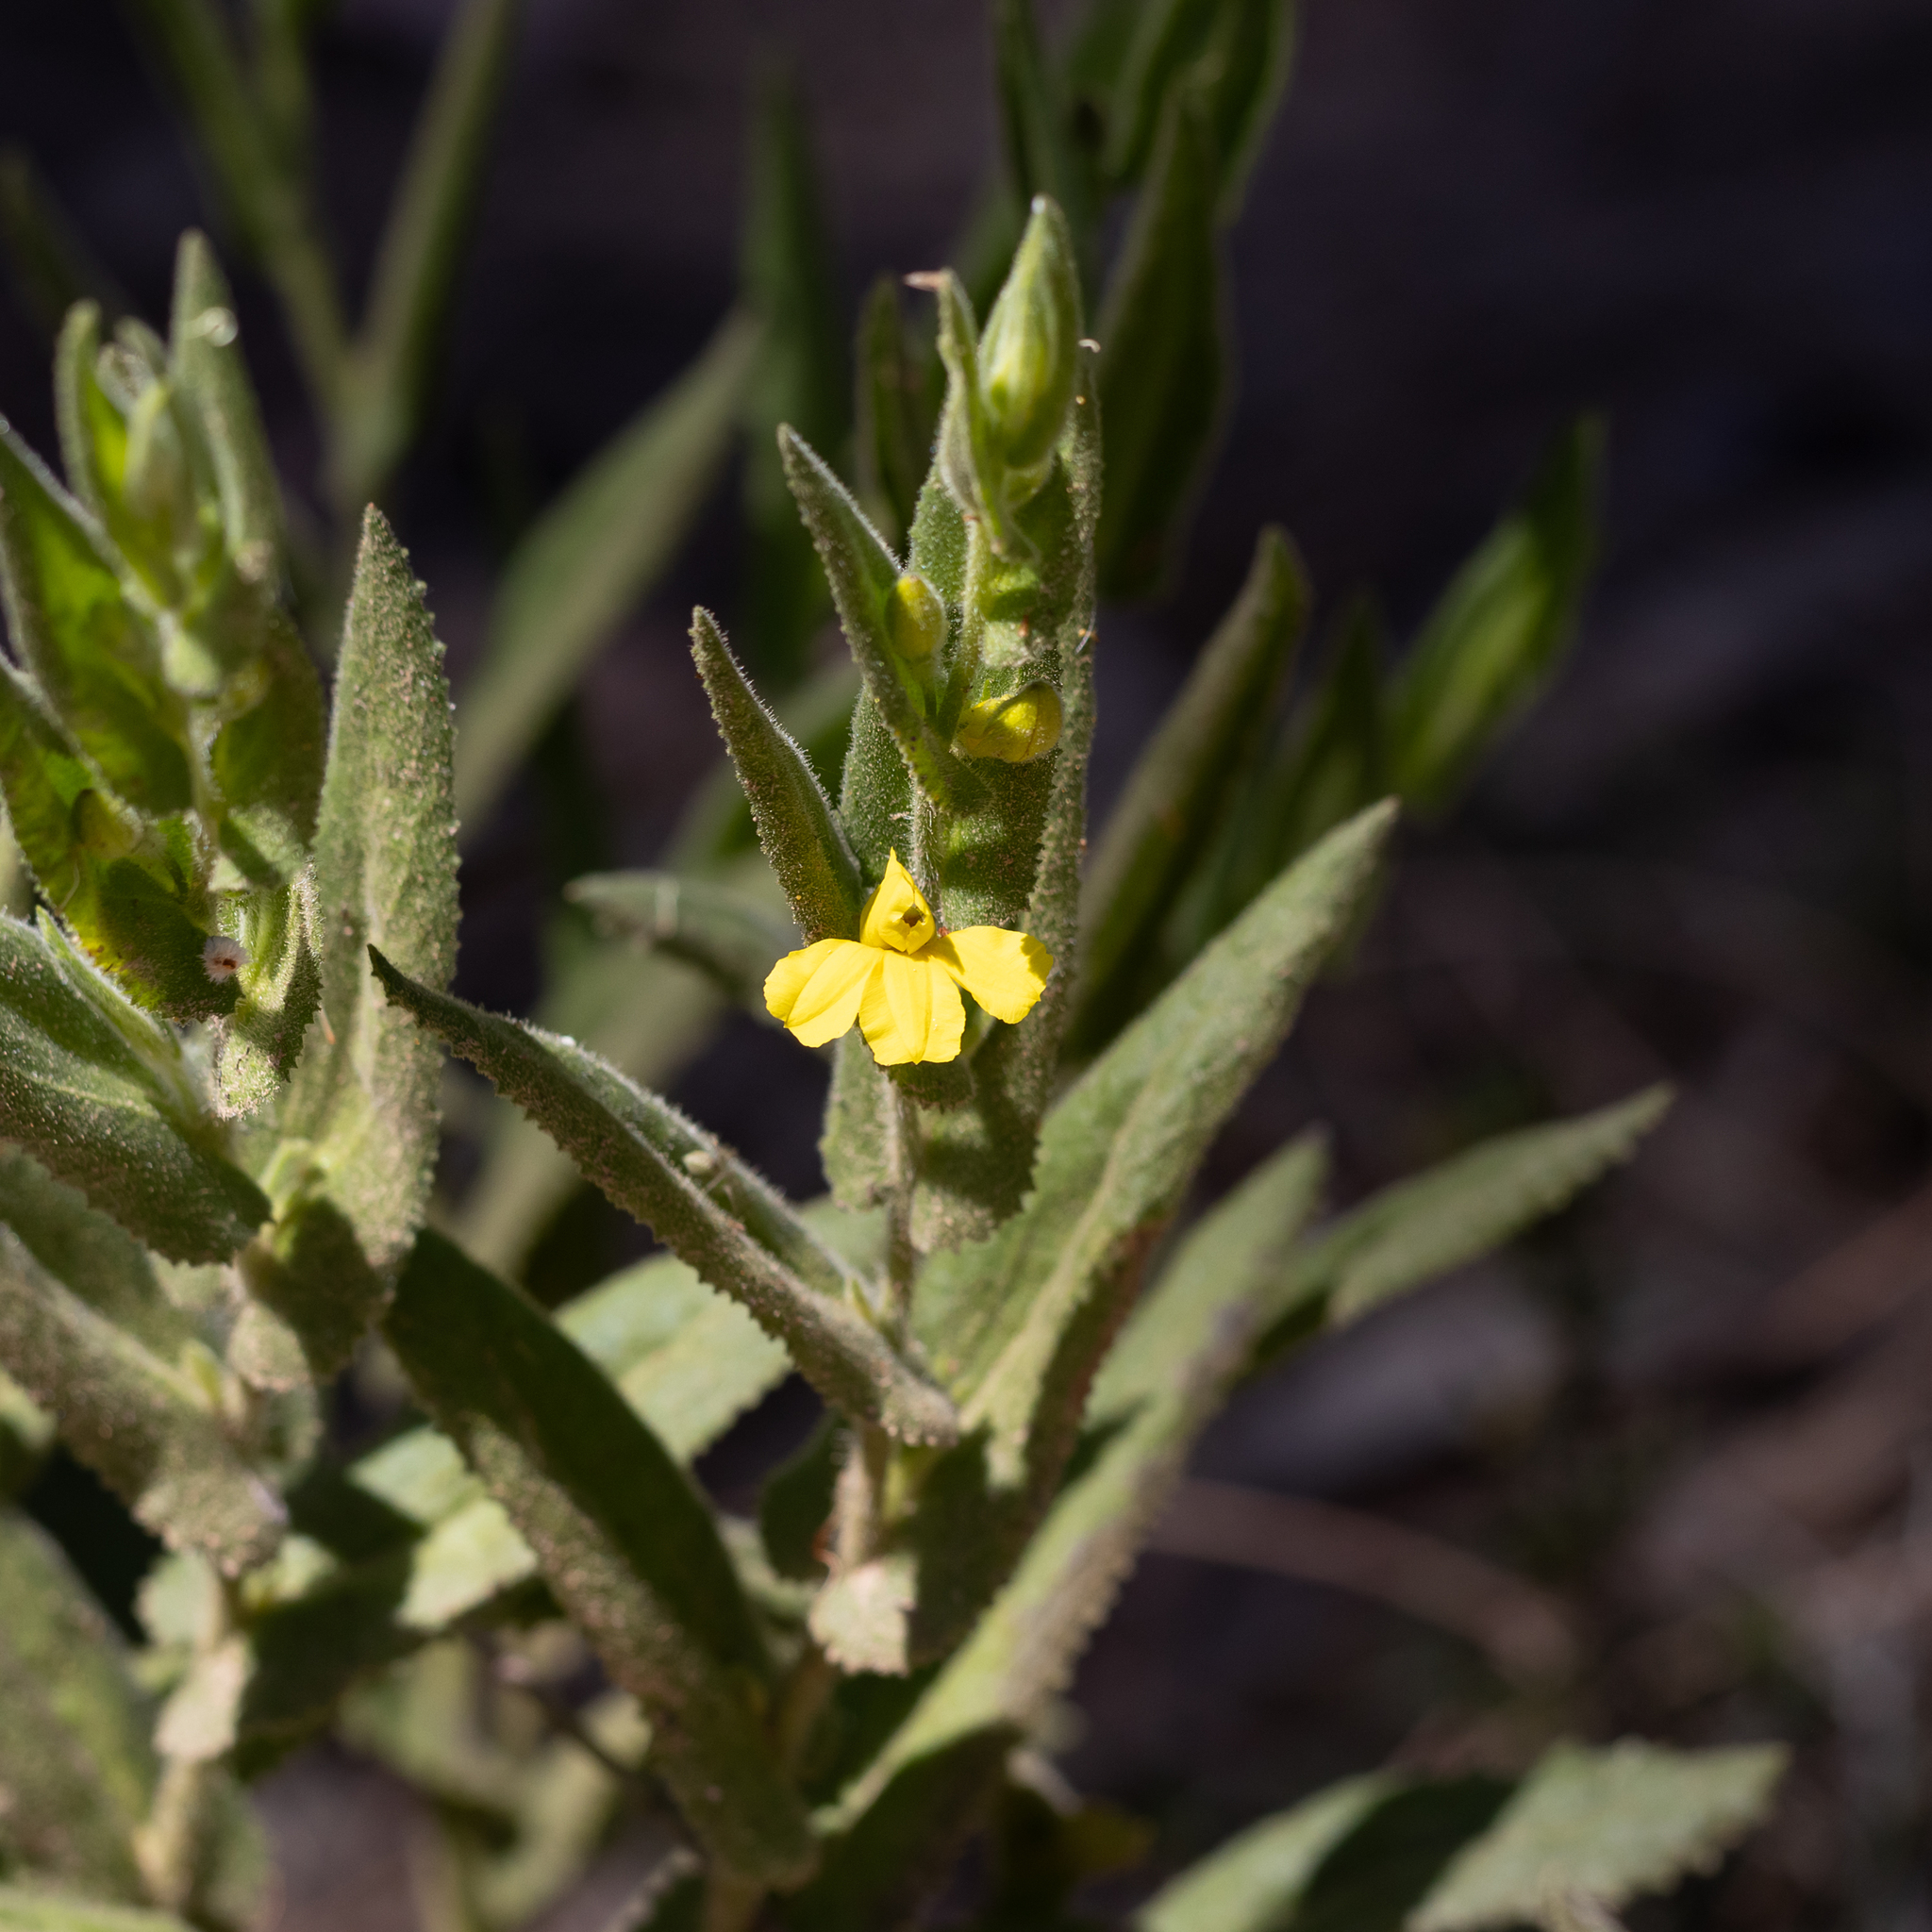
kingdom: Plantae
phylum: Tracheophyta
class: Magnoliopsida
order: Asterales
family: Goodeniaceae
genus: Goodenia
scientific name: Goodenia amplexans
